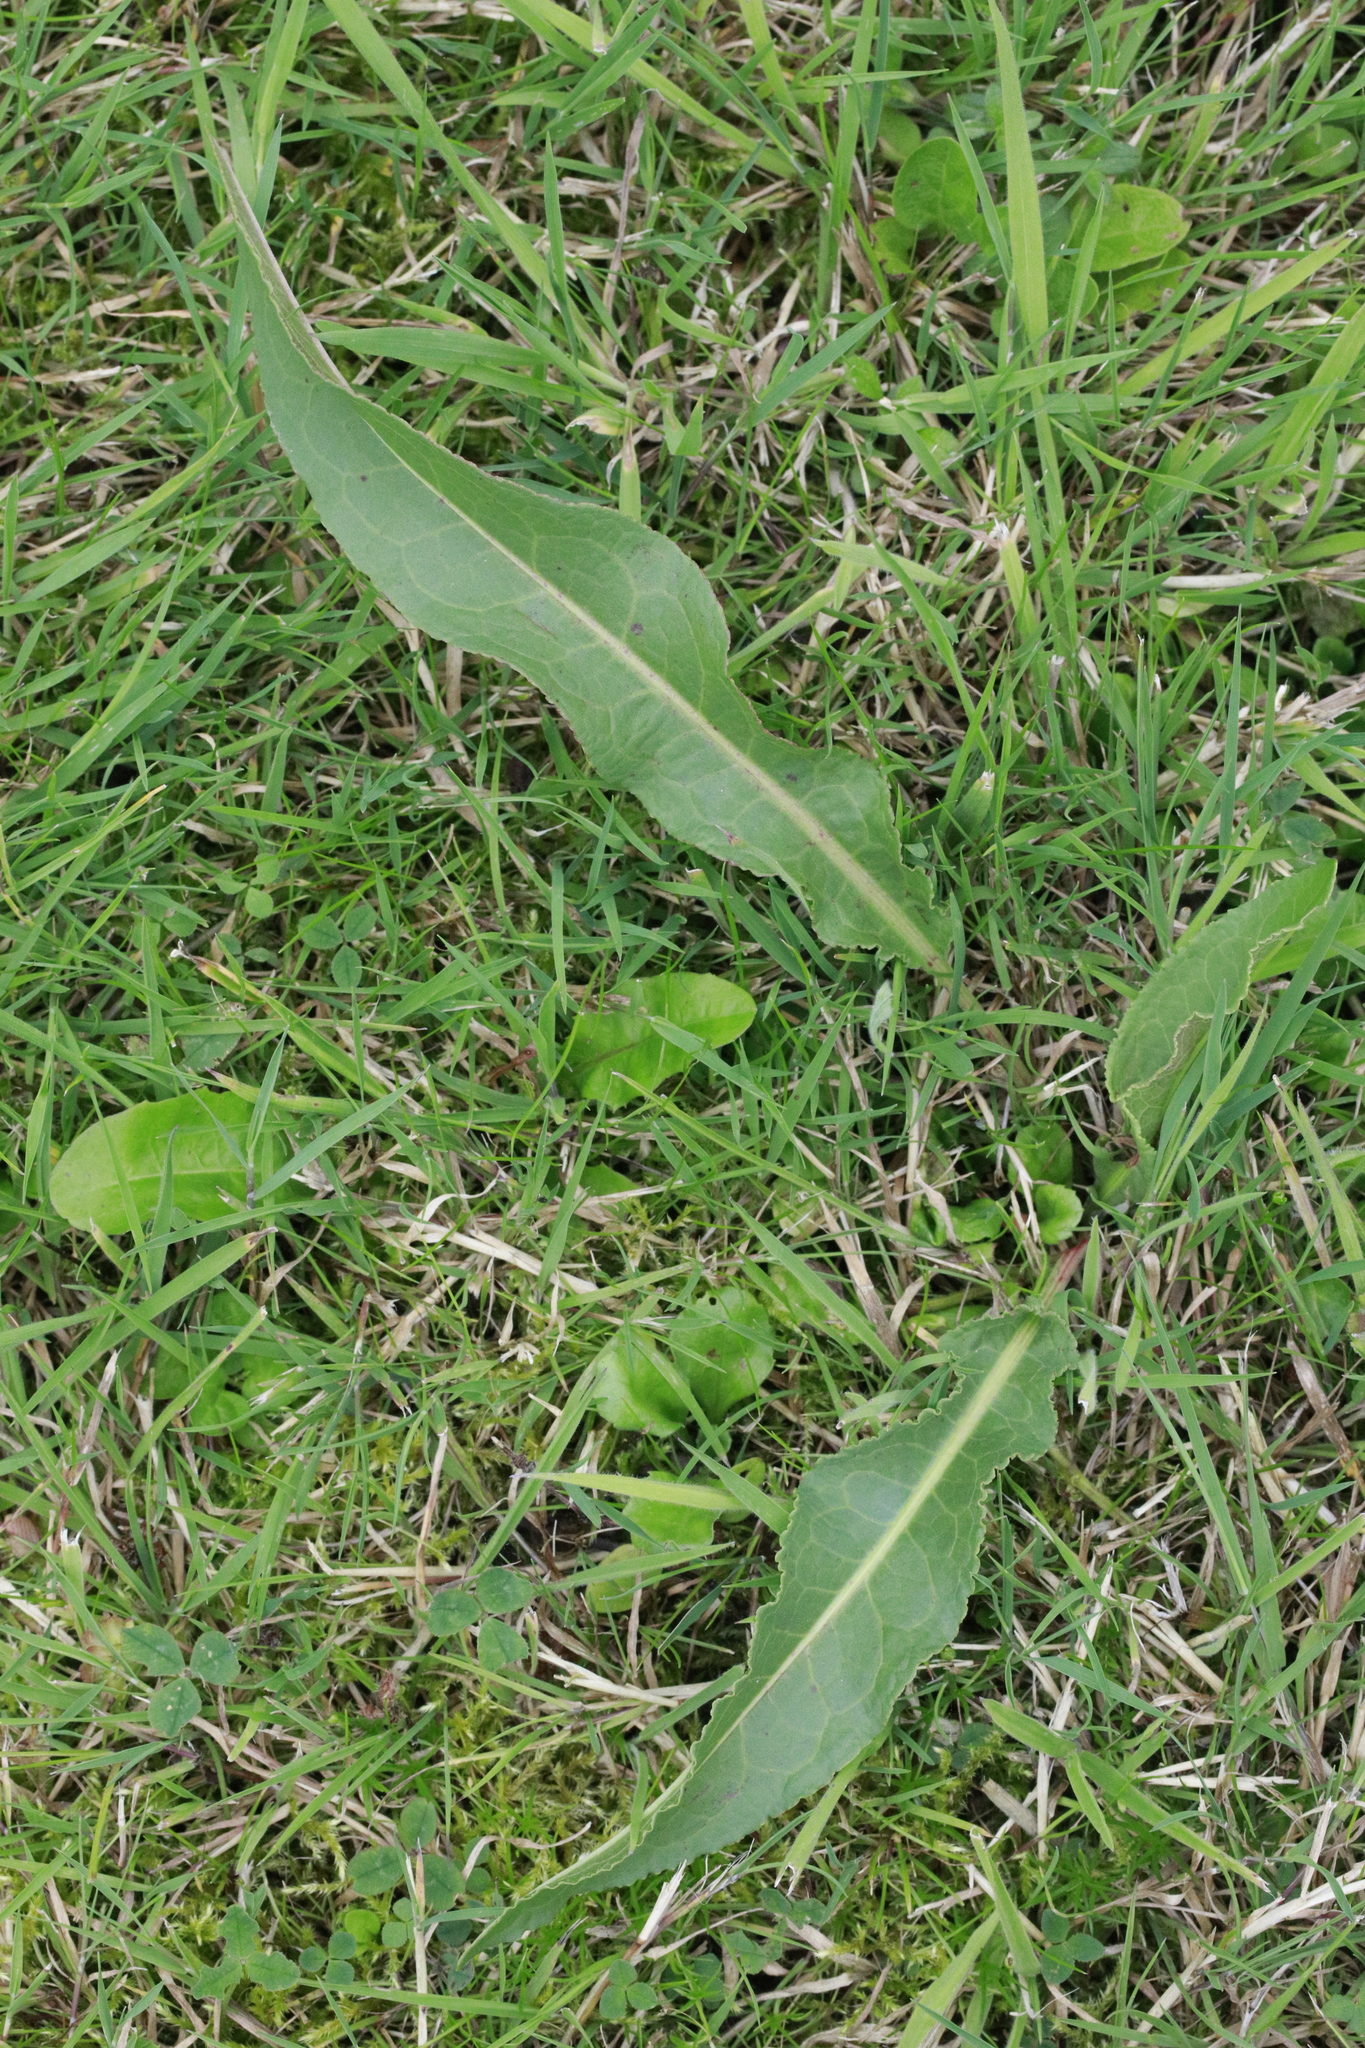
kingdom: Plantae
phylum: Tracheophyta
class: Magnoliopsida
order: Caryophyllales
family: Polygonaceae
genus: Rumex
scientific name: Rumex crispus
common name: Curled dock
